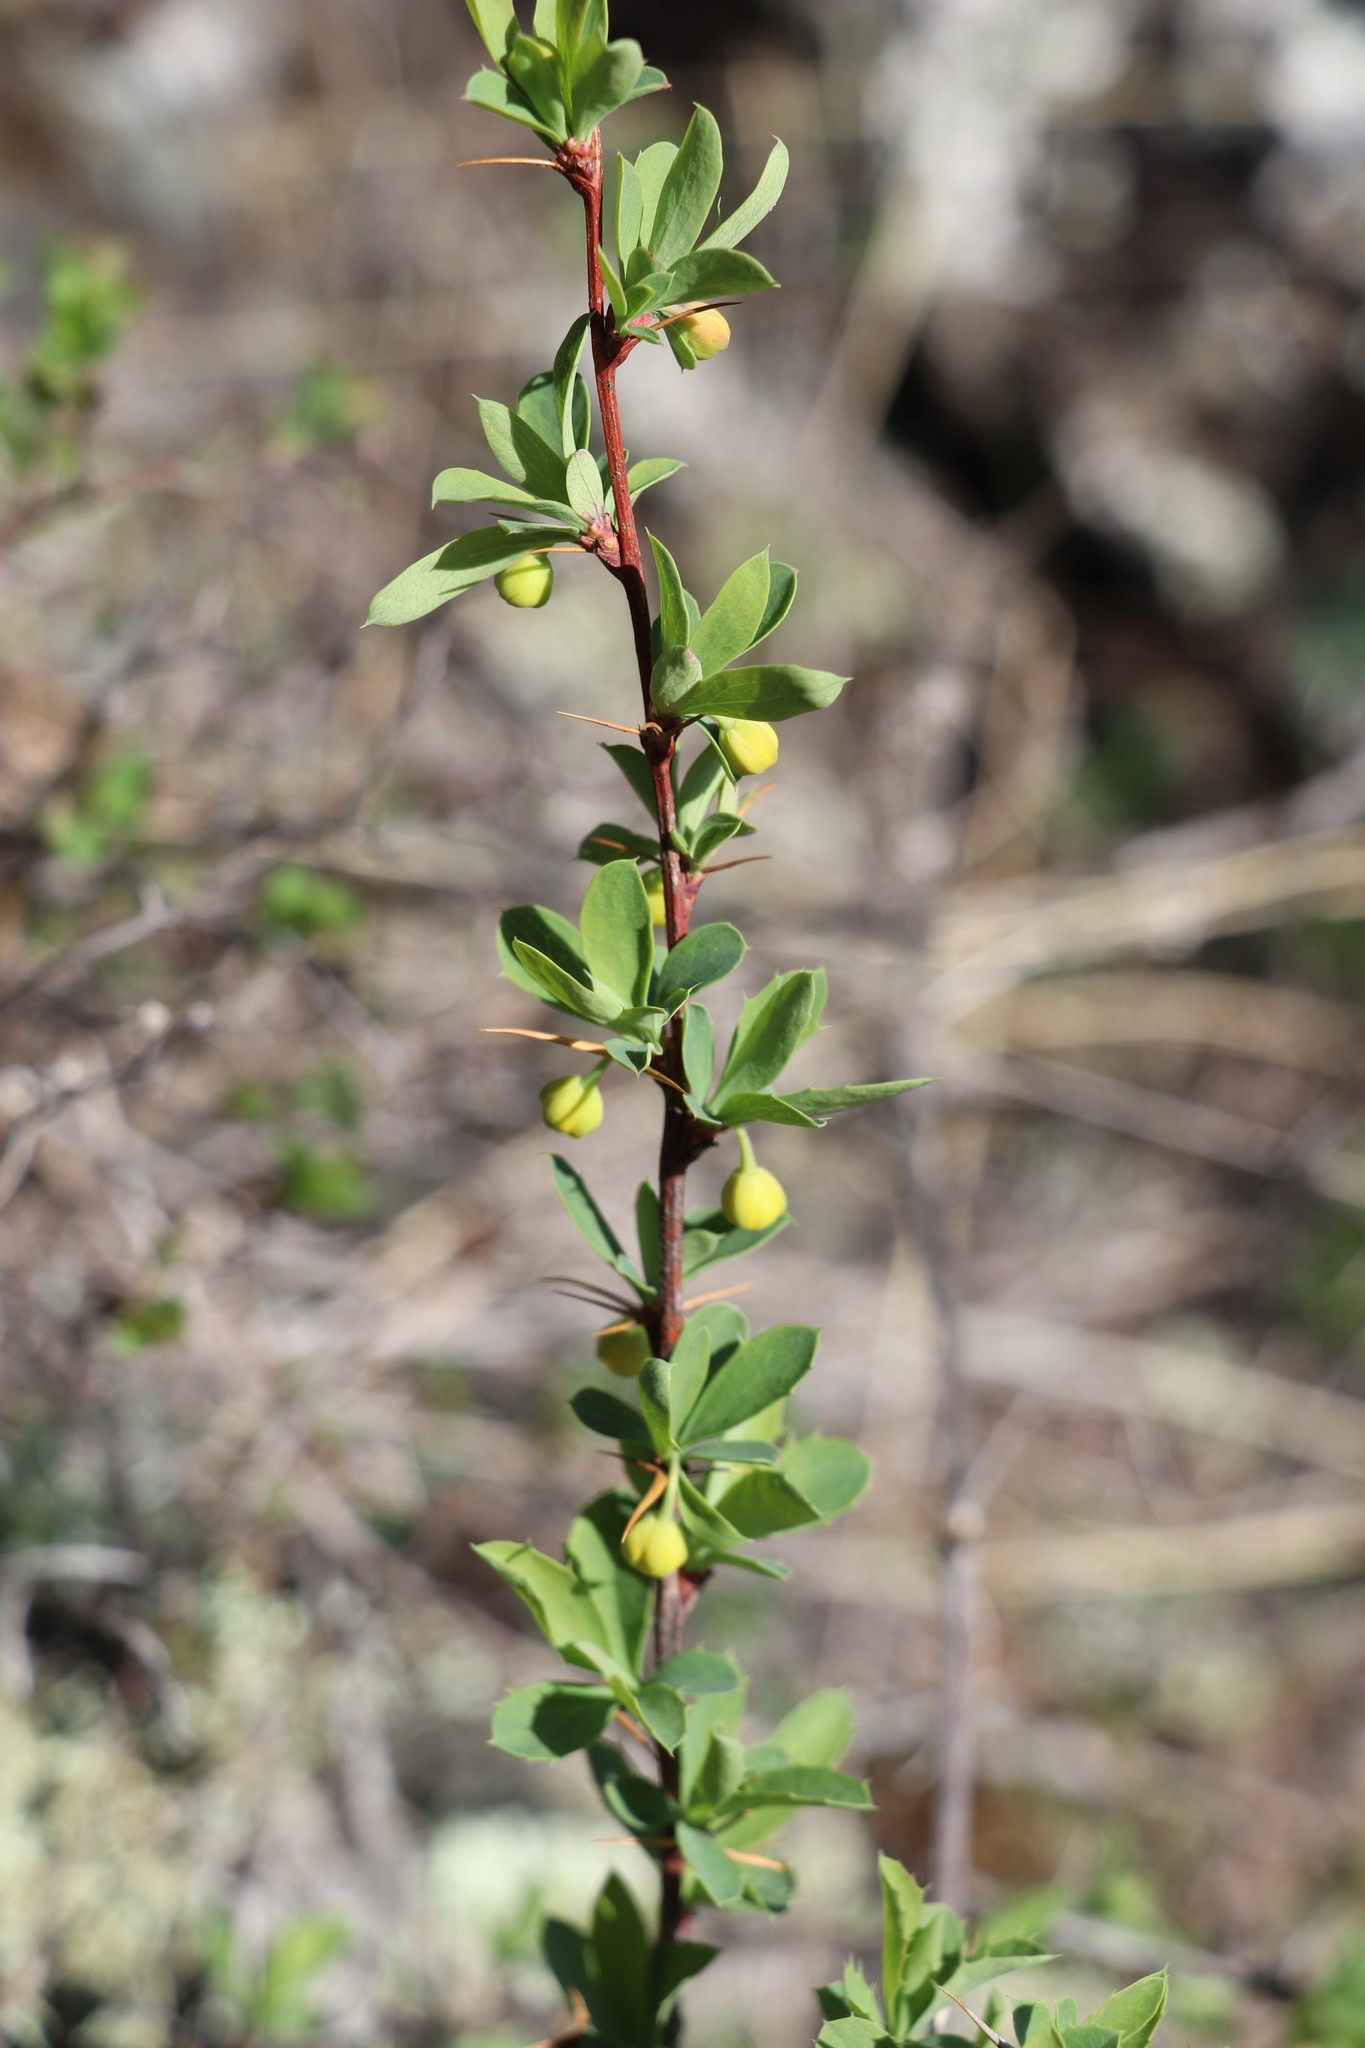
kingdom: Plantae
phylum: Tracheophyta
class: Magnoliopsida
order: Ranunculales
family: Berberidaceae
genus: Berberis
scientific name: Berberis sibirica
